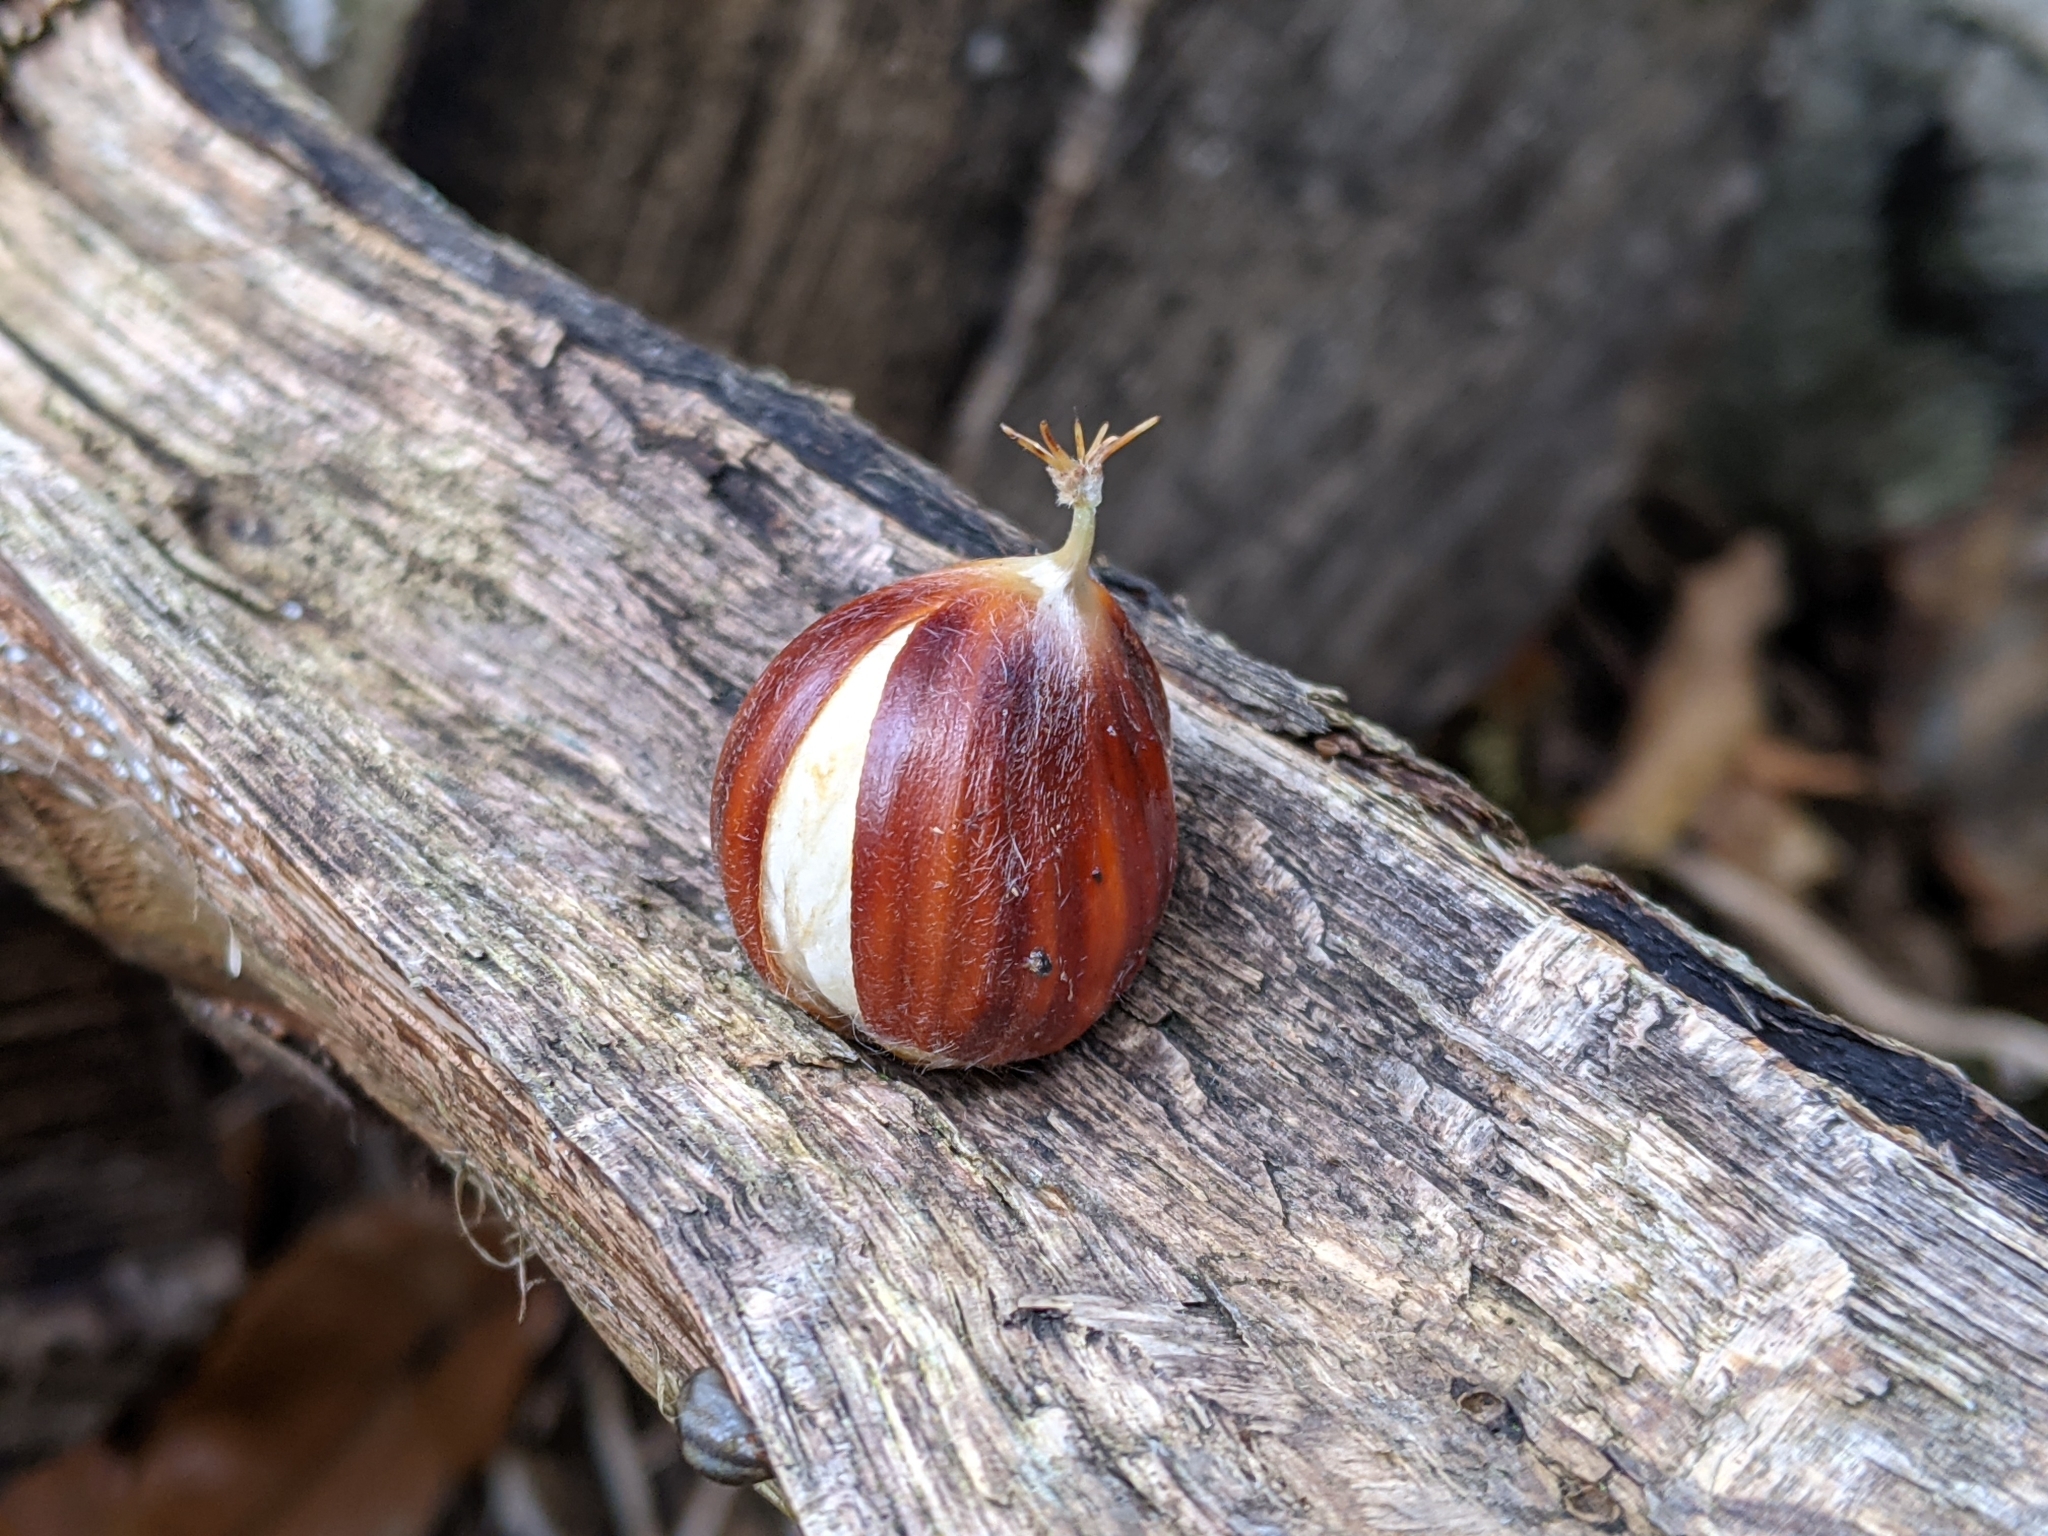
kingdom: Plantae
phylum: Tracheophyta
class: Magnoliopsida
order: Fagales
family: Fagaceae
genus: Castanea
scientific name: Castanea sativa
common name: Sweet chestnut
